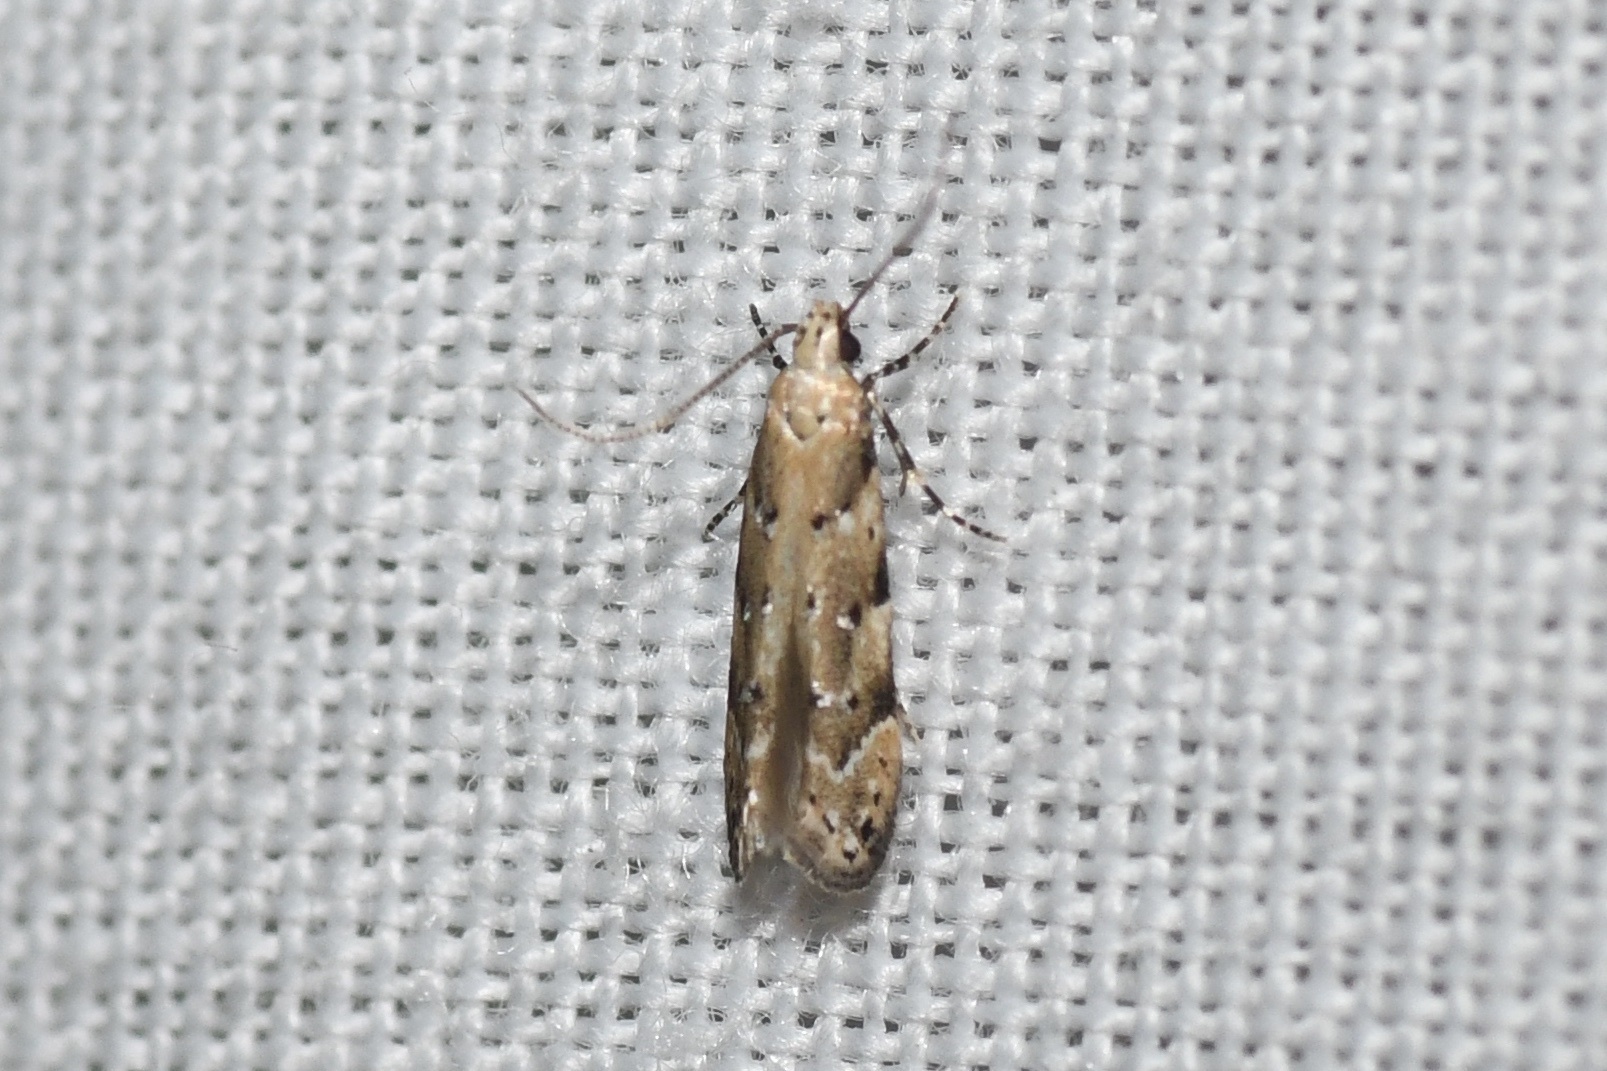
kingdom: Animalia
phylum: Arthropoda
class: Insecta
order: Lepidoptera
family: Gelechiidae
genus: Coleotechnites
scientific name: Coleotechnites coniferella
